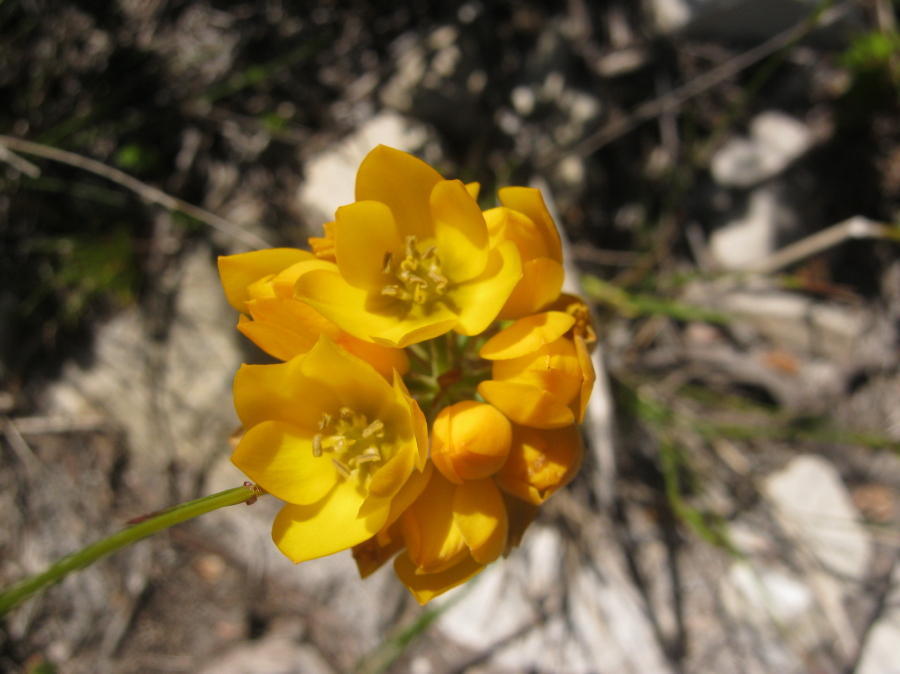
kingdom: Plantae
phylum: Tracheophyta
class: Liliopsida
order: Asparagales
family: Asparagaceae
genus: Ornithogalum
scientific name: Ornithogalum dubium
